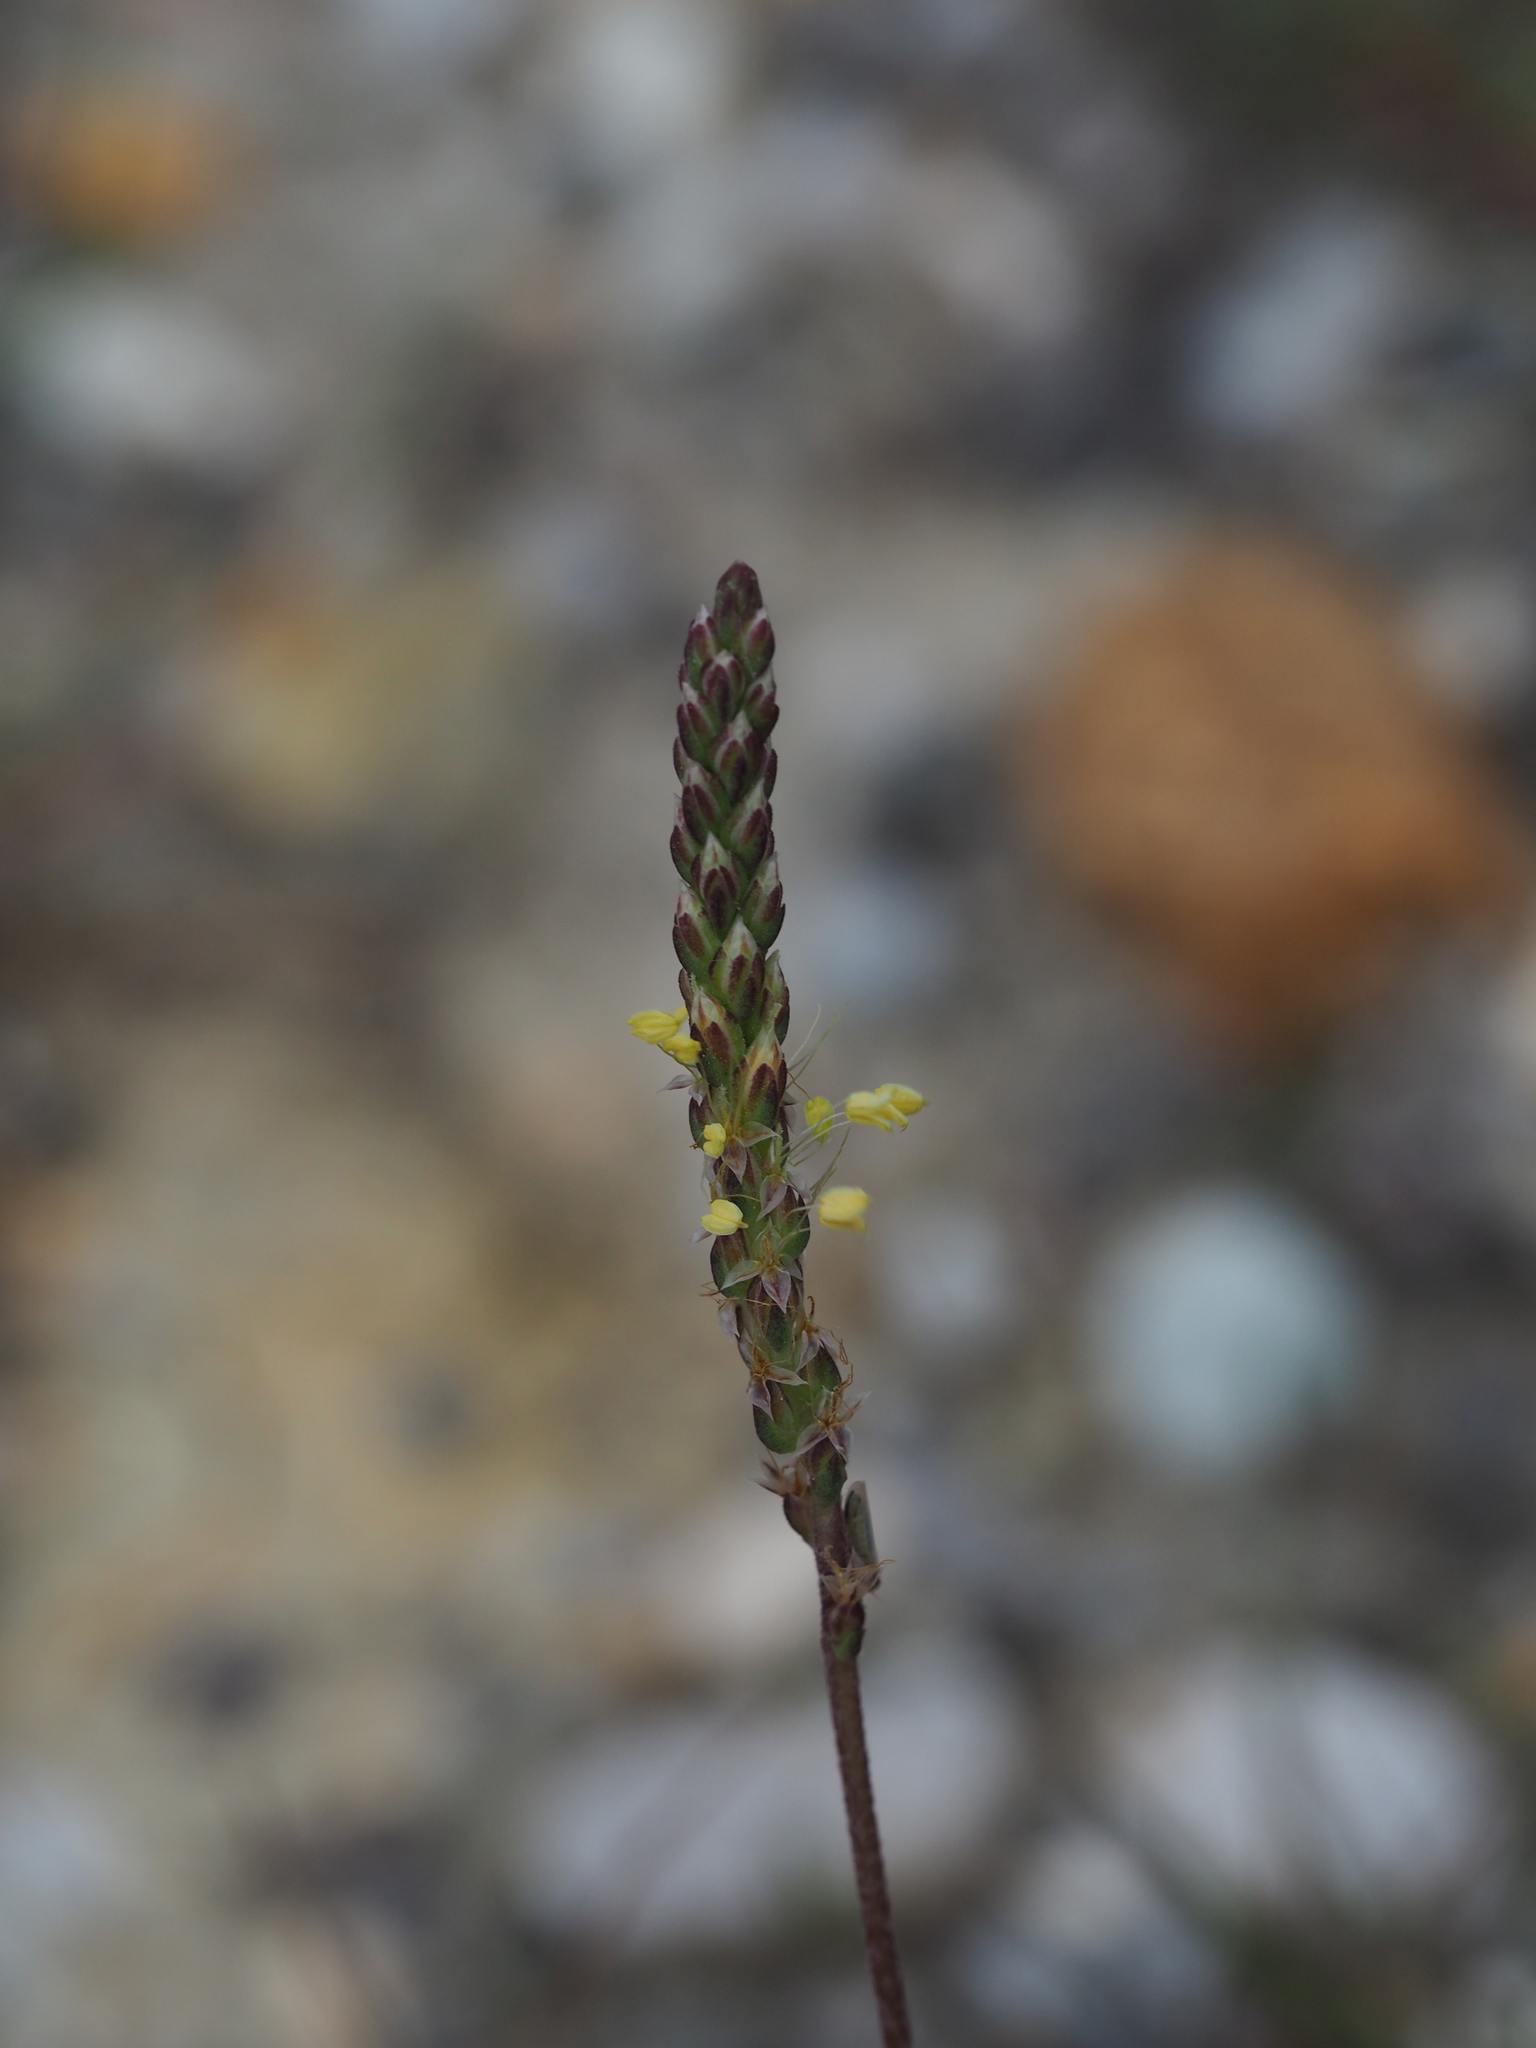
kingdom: Plantae
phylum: Tracheophyta
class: Magnoliopsida
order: Lamiales
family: Plantaginaceae
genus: Plantago
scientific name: Plantago maritima
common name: Sea plantain
